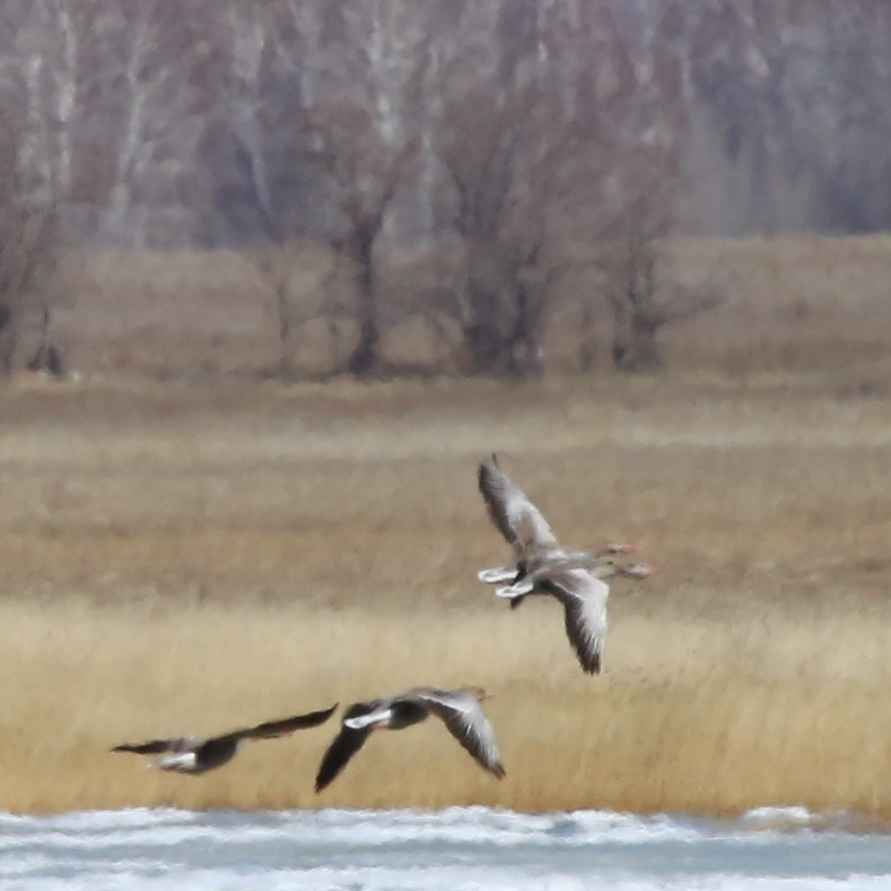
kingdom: Animalia
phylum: Chordata
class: Aves
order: Anseriformes
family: Anatidae
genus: Anser
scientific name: Anser anser
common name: Greylag goose
